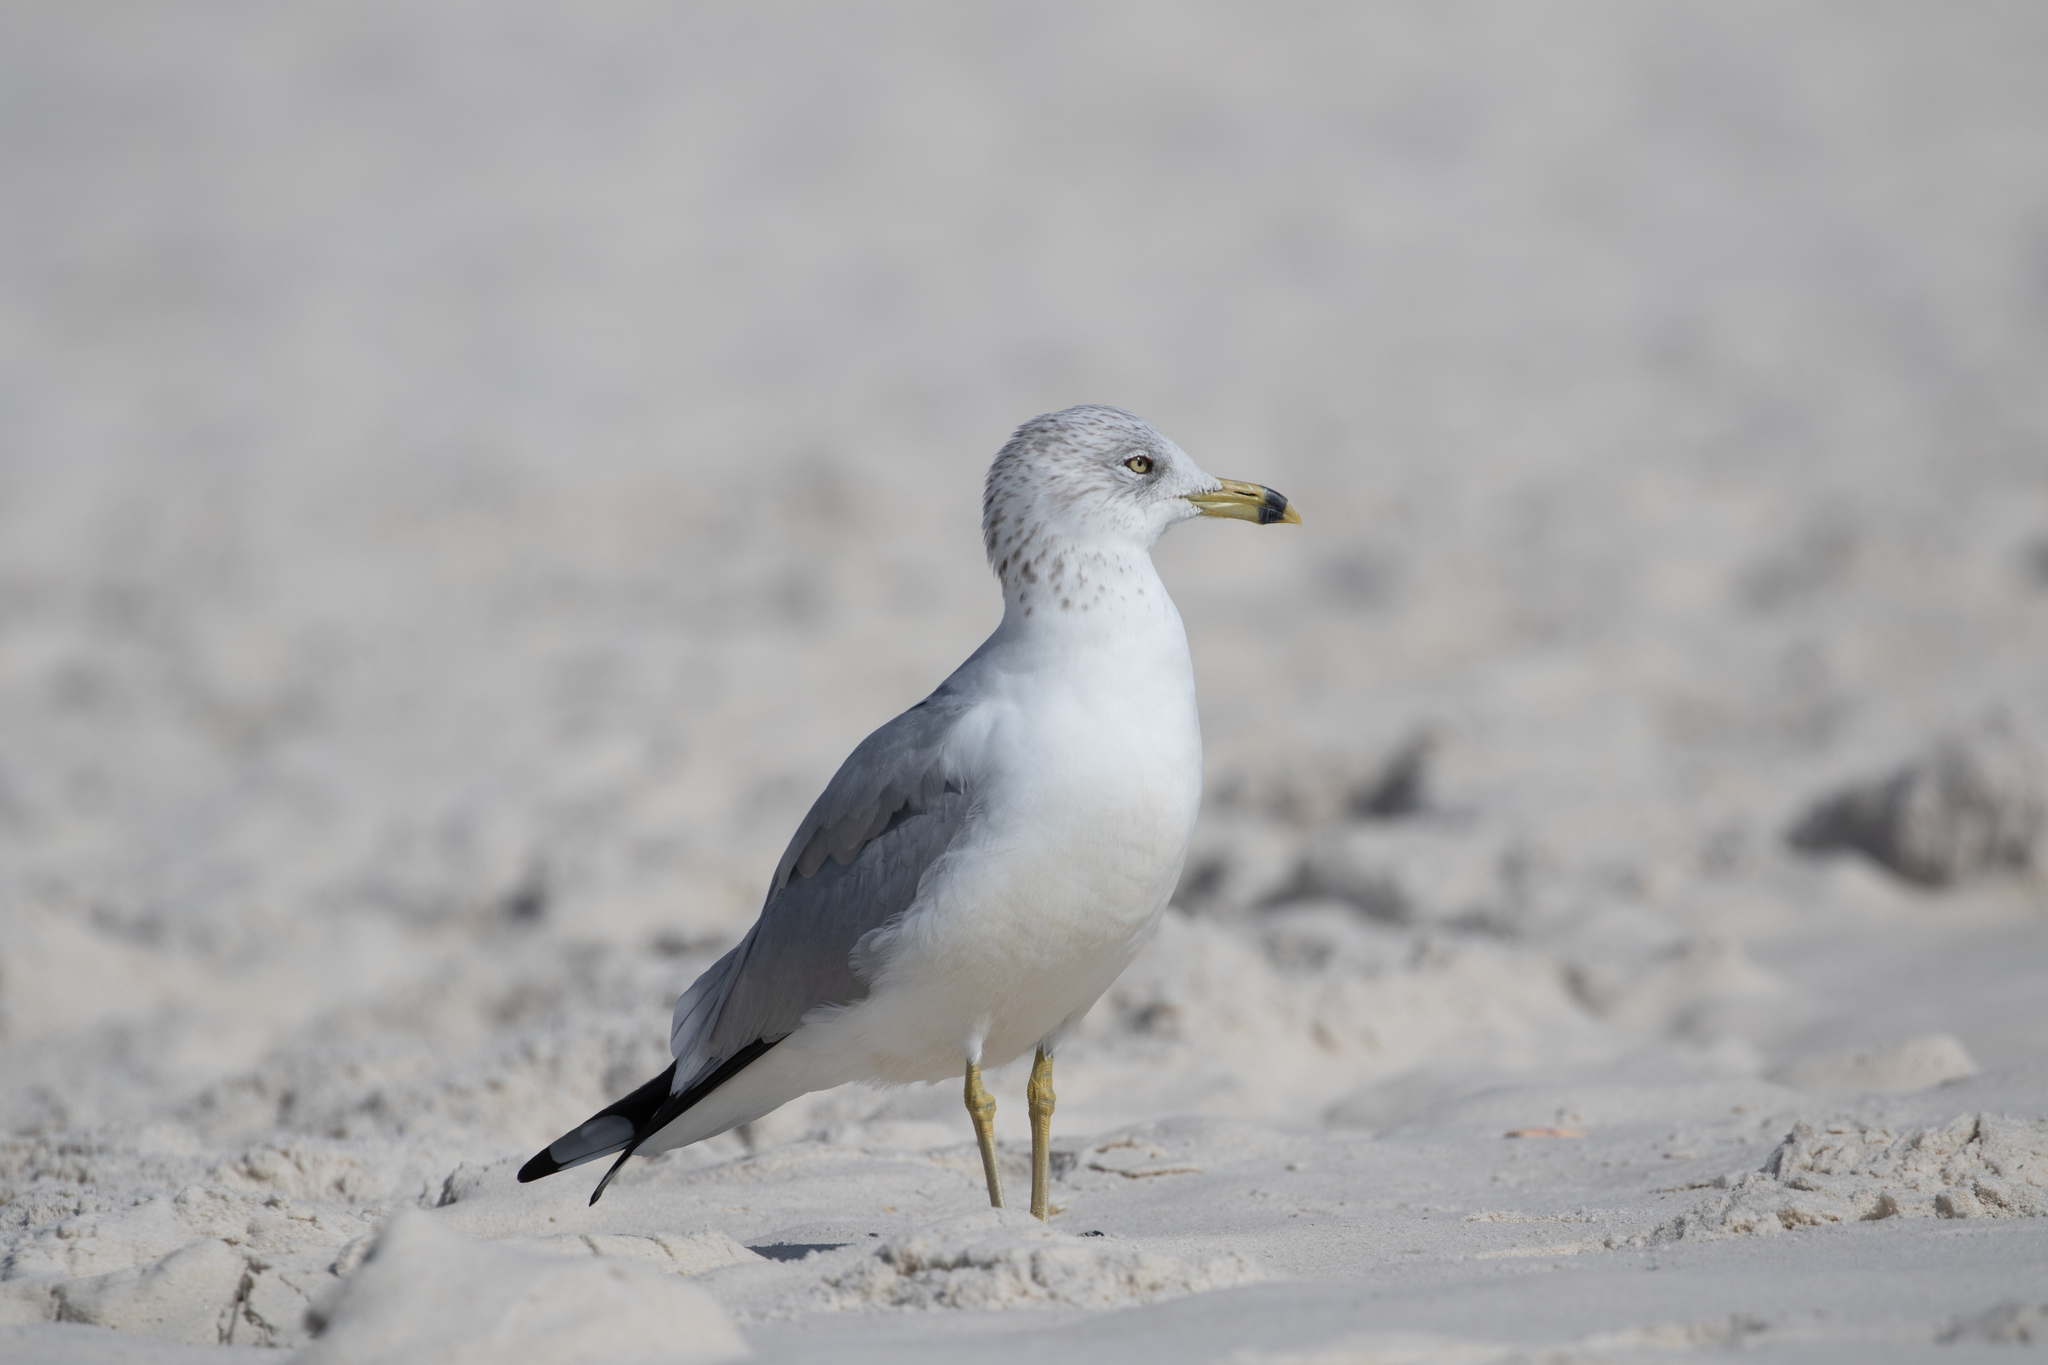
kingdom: Animalia
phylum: Chordata
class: Aves
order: Charadriiformes
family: Laridae
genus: Larus
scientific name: Larus delawarensis
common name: Ring-billed gull
